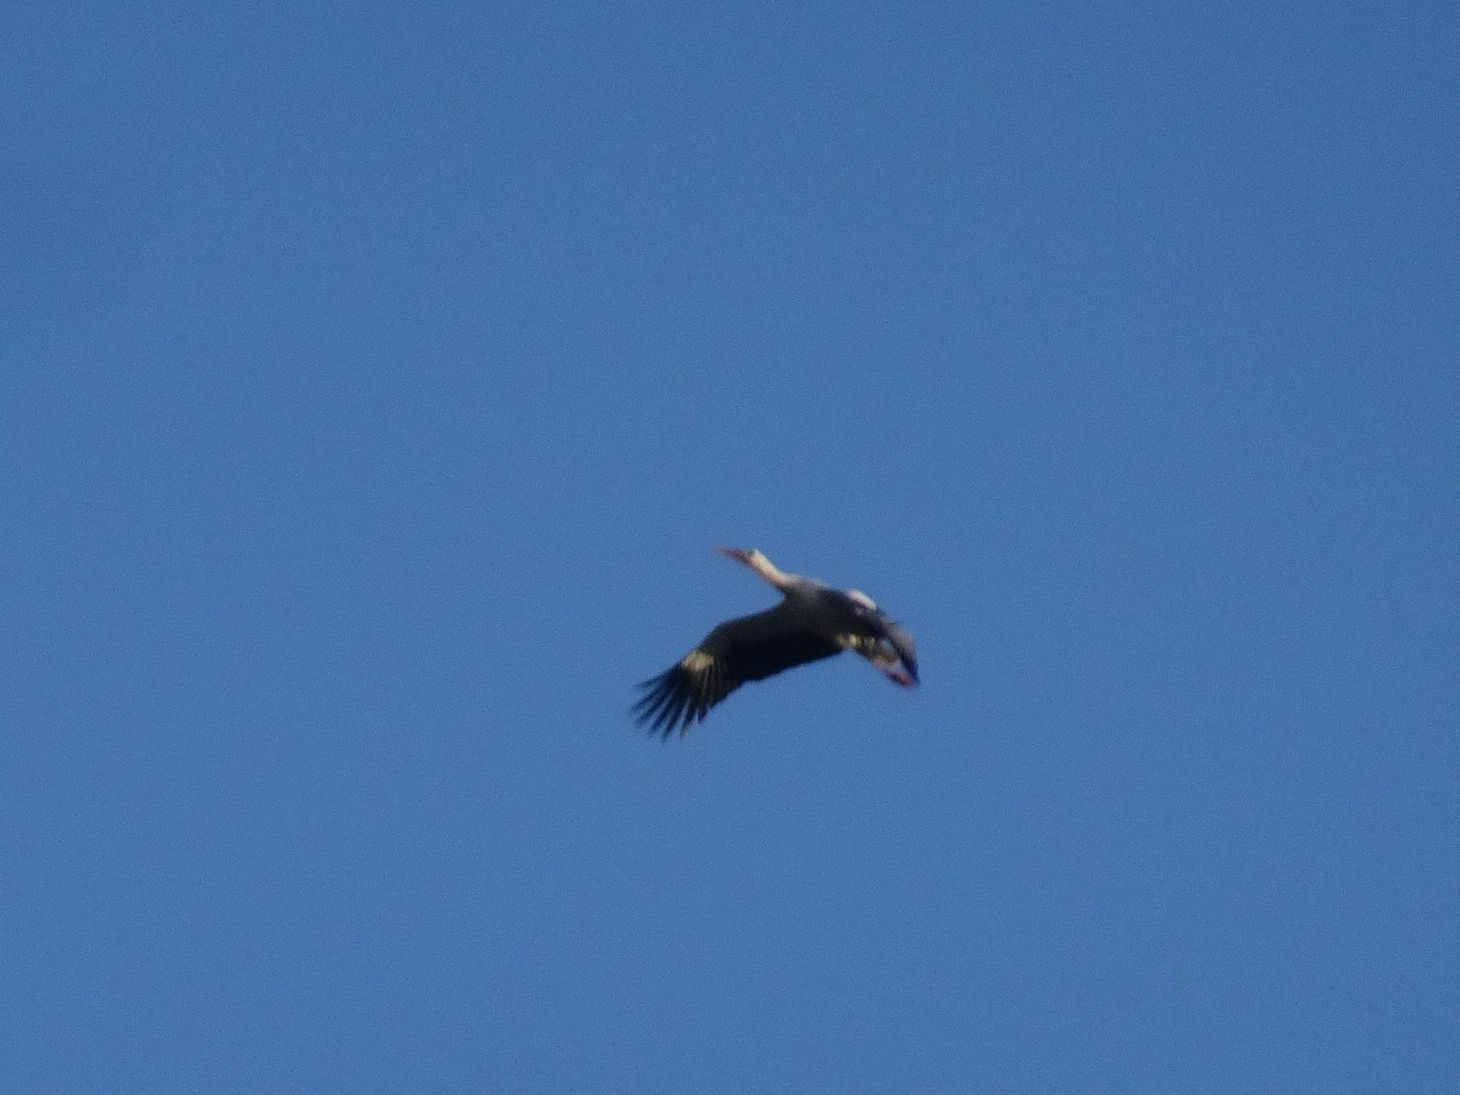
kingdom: Animalia
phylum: Chordata
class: Aves
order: Ciconiiformes
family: Ciconiidae
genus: Ciconia
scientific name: Ciconia ciconia
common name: White stork
